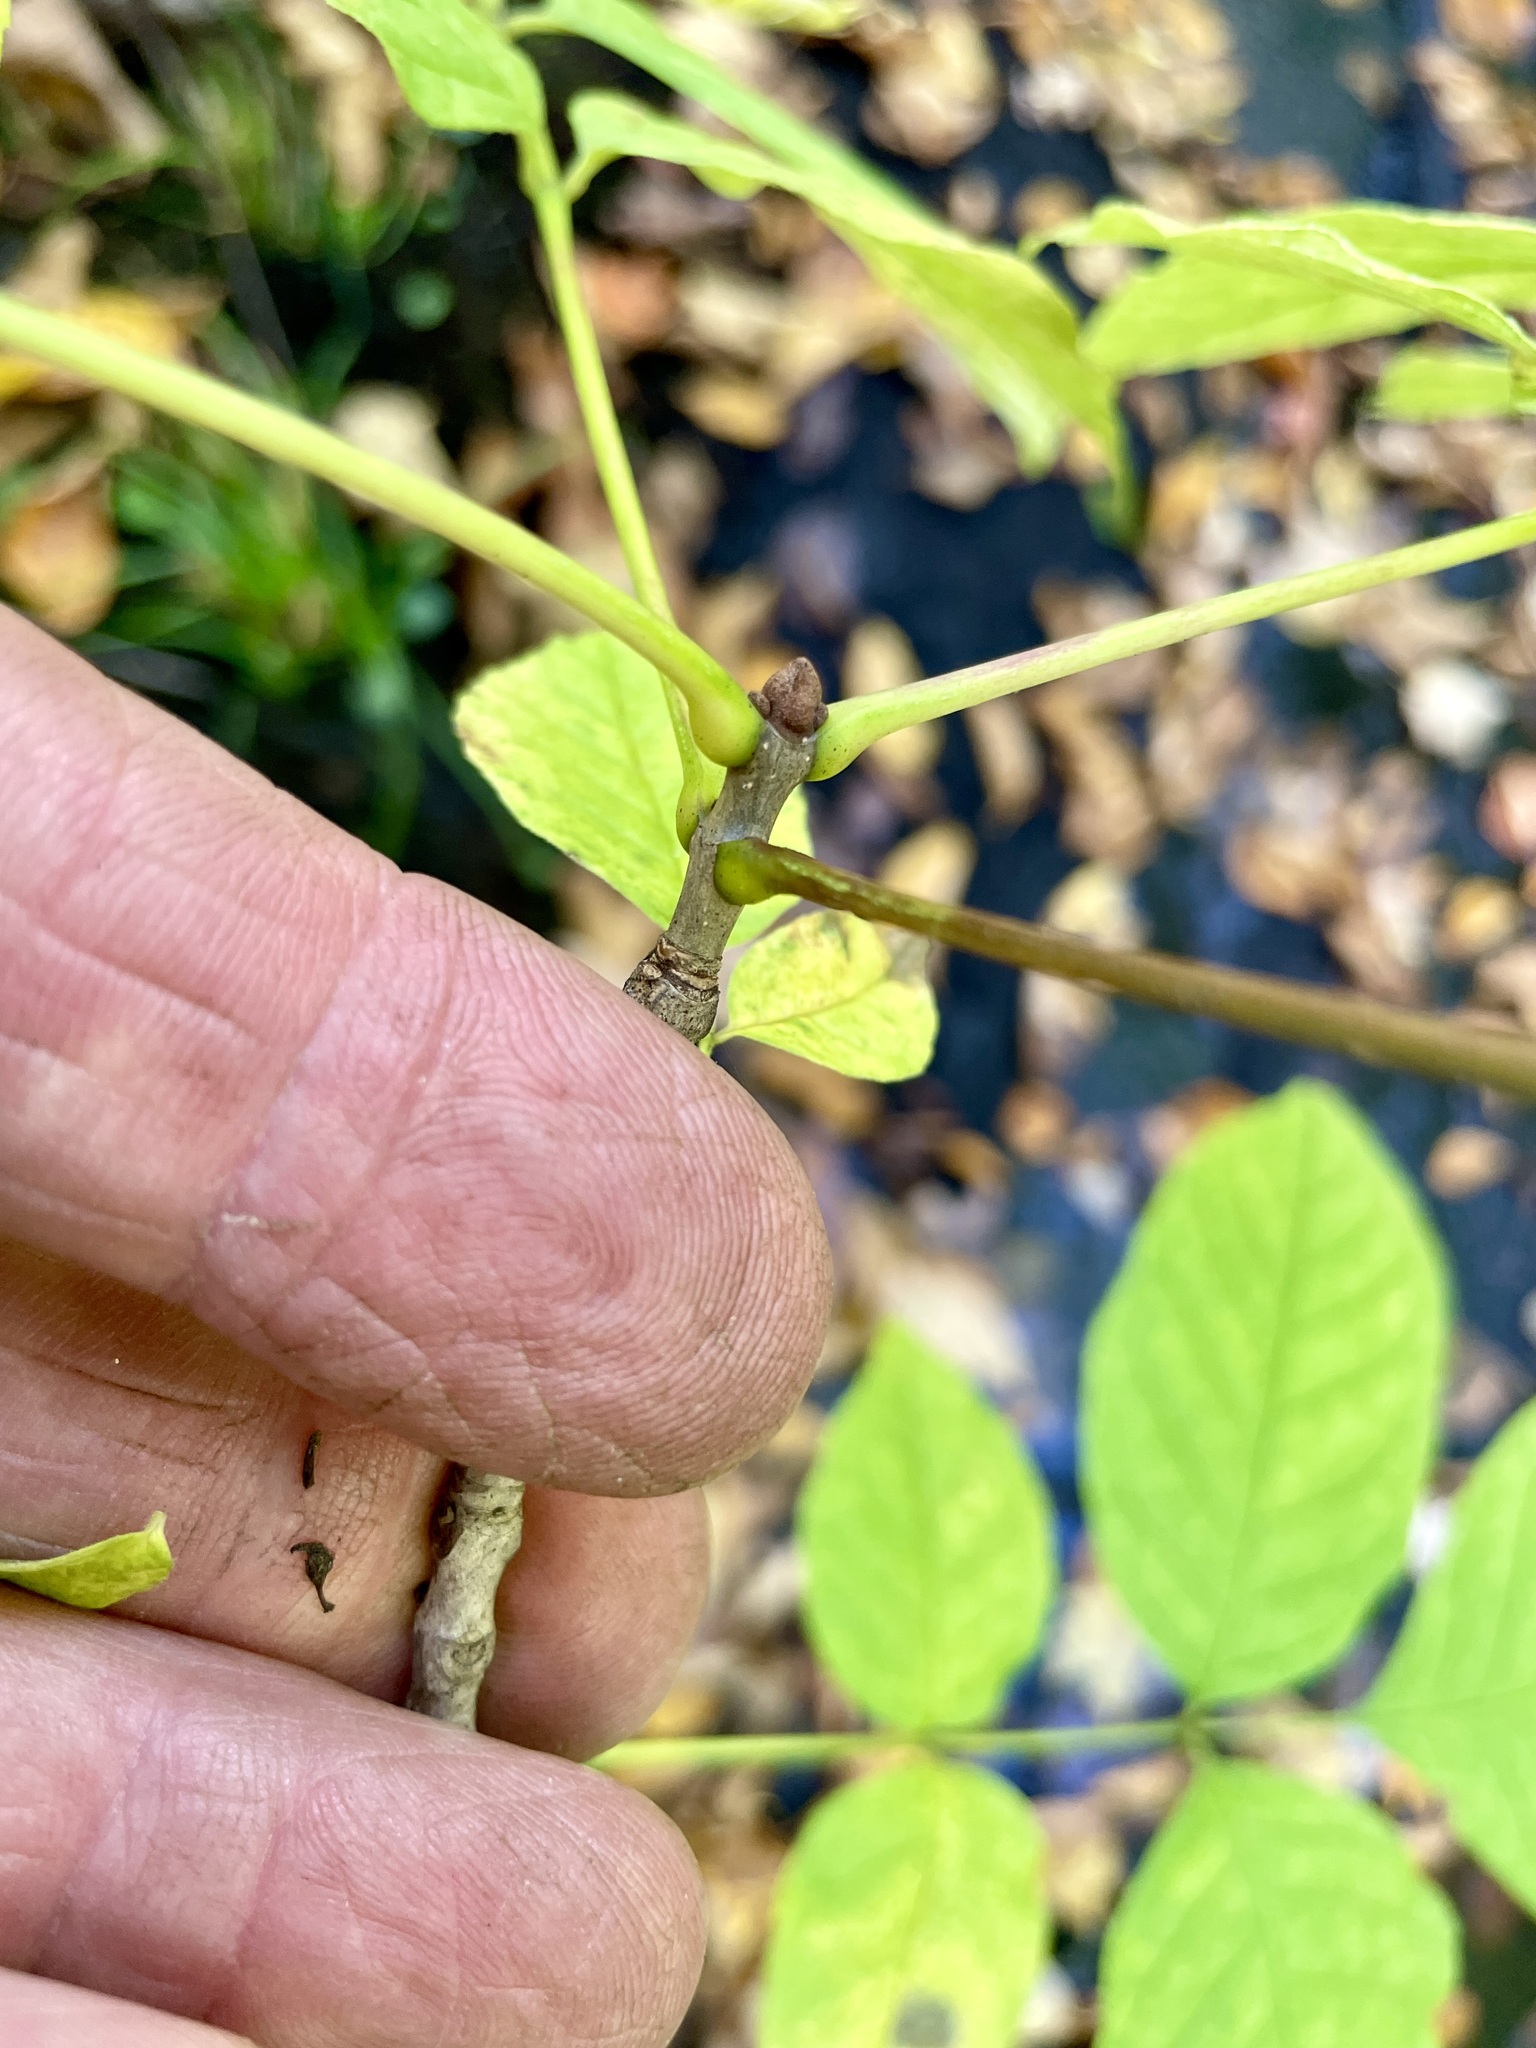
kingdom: Plantae
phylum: Tracheophyta
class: Magnoliopsida
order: Lamiales
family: Oleaceae
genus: Fraxinus
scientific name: Fraxinus pennsylvanica
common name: Green ash
